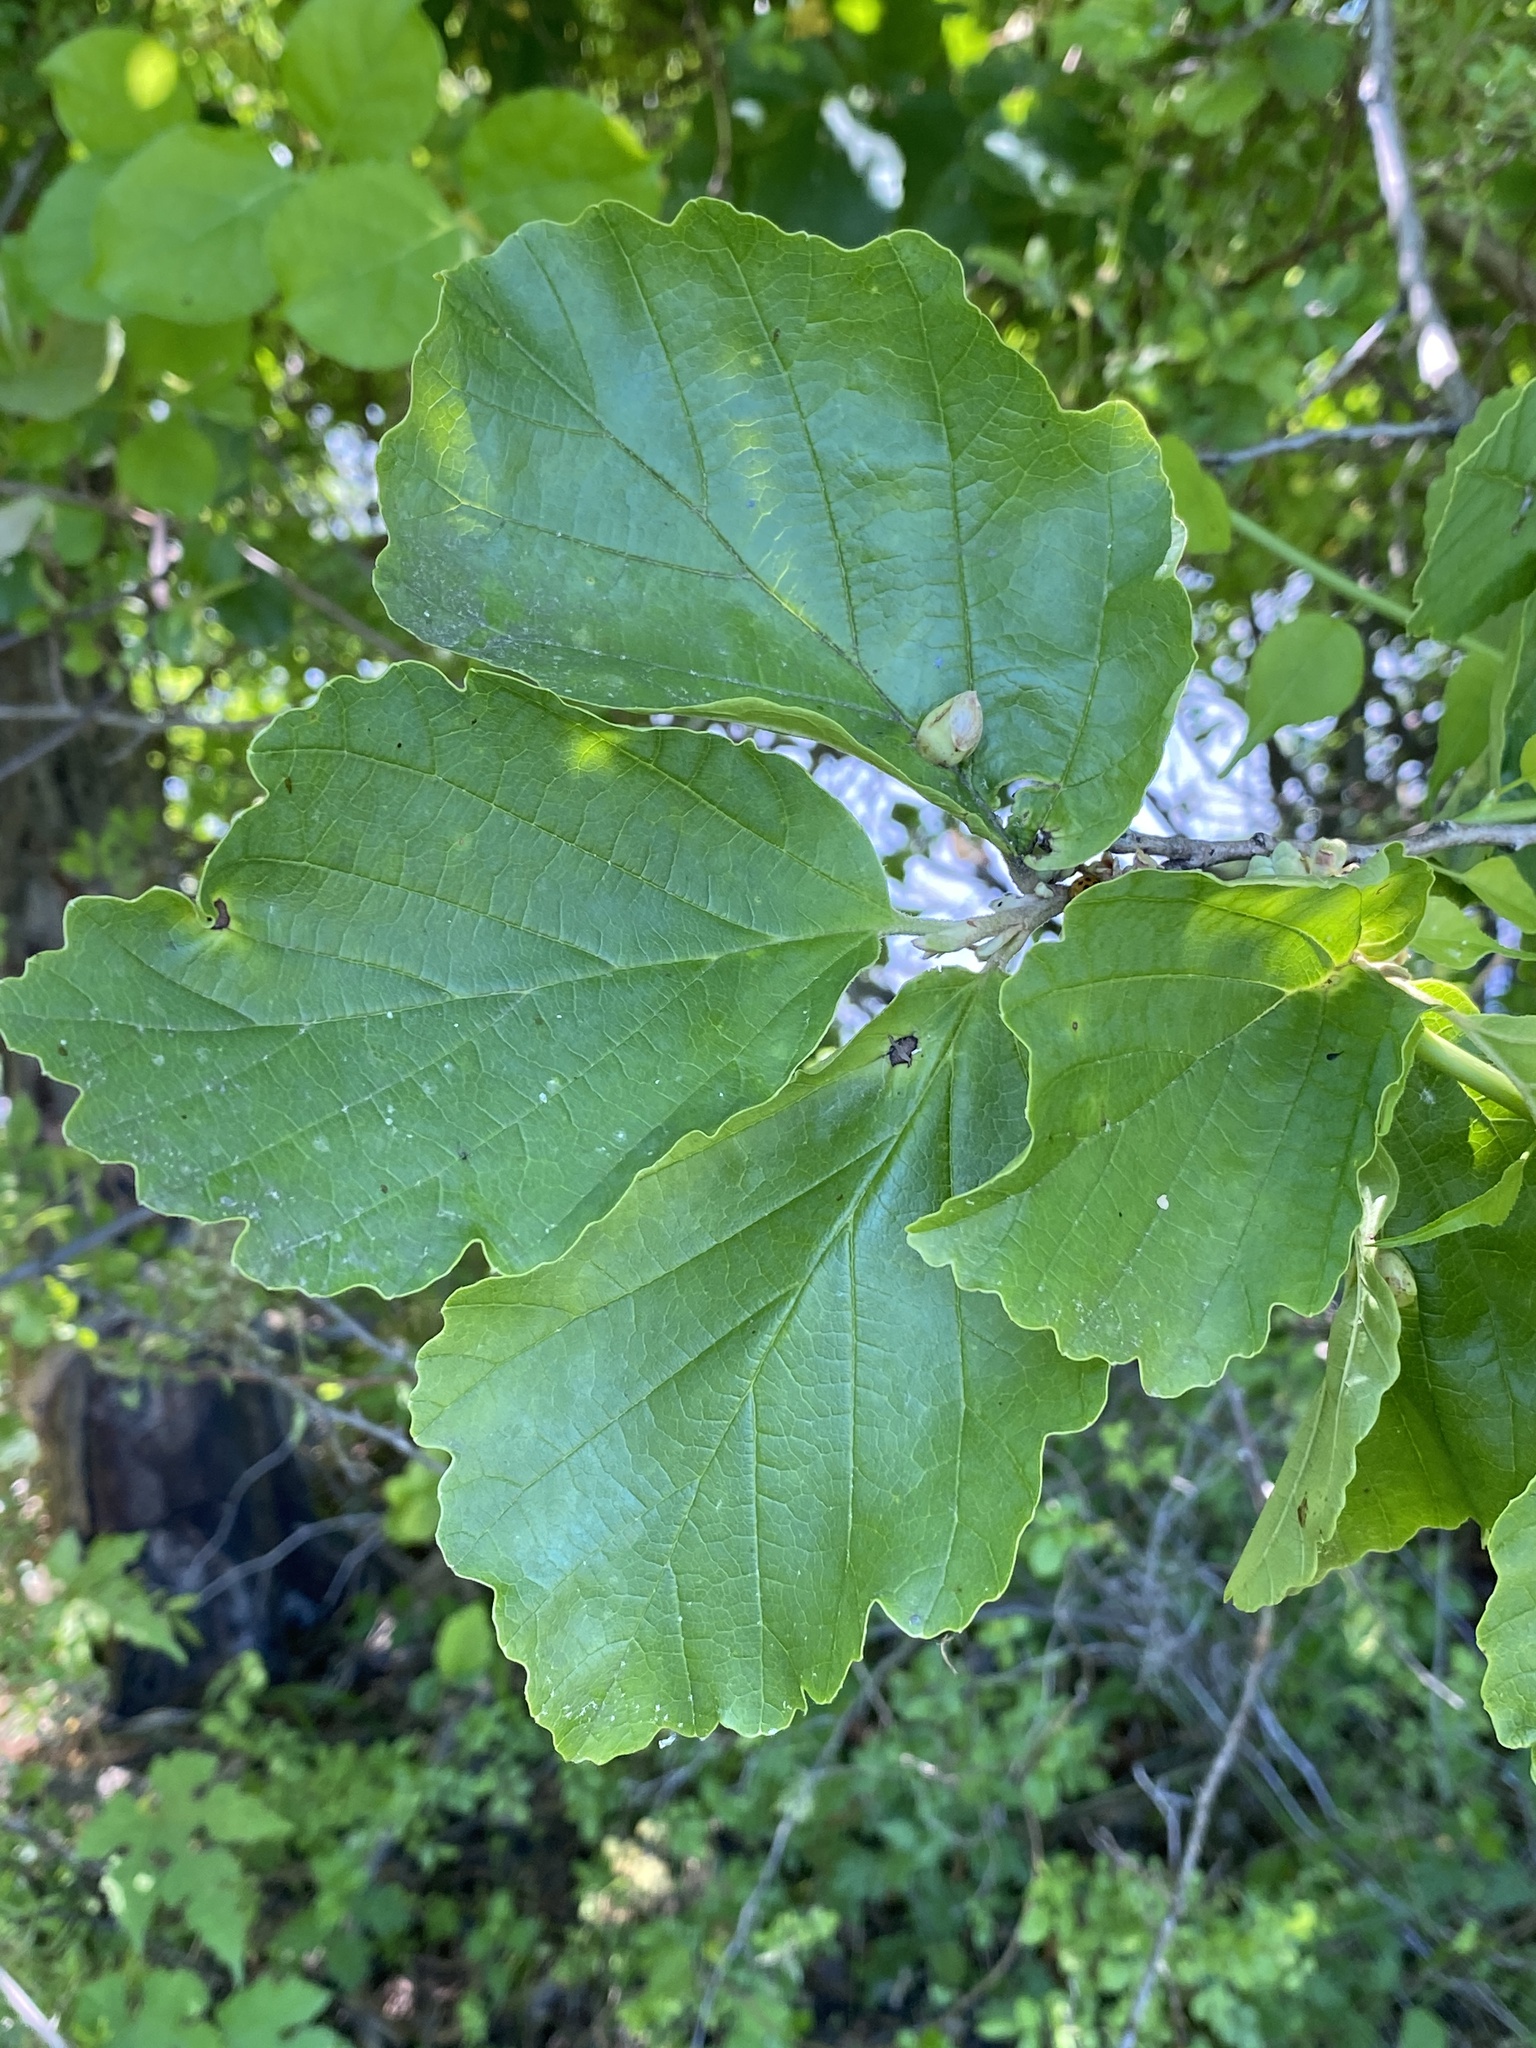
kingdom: Plantae
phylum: Tracheophyta
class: Magnoliopsida
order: Saxifragales
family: Hamamelidaceae
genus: Hamamelis
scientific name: Hamamelis virginiana
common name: Witch-hazel
